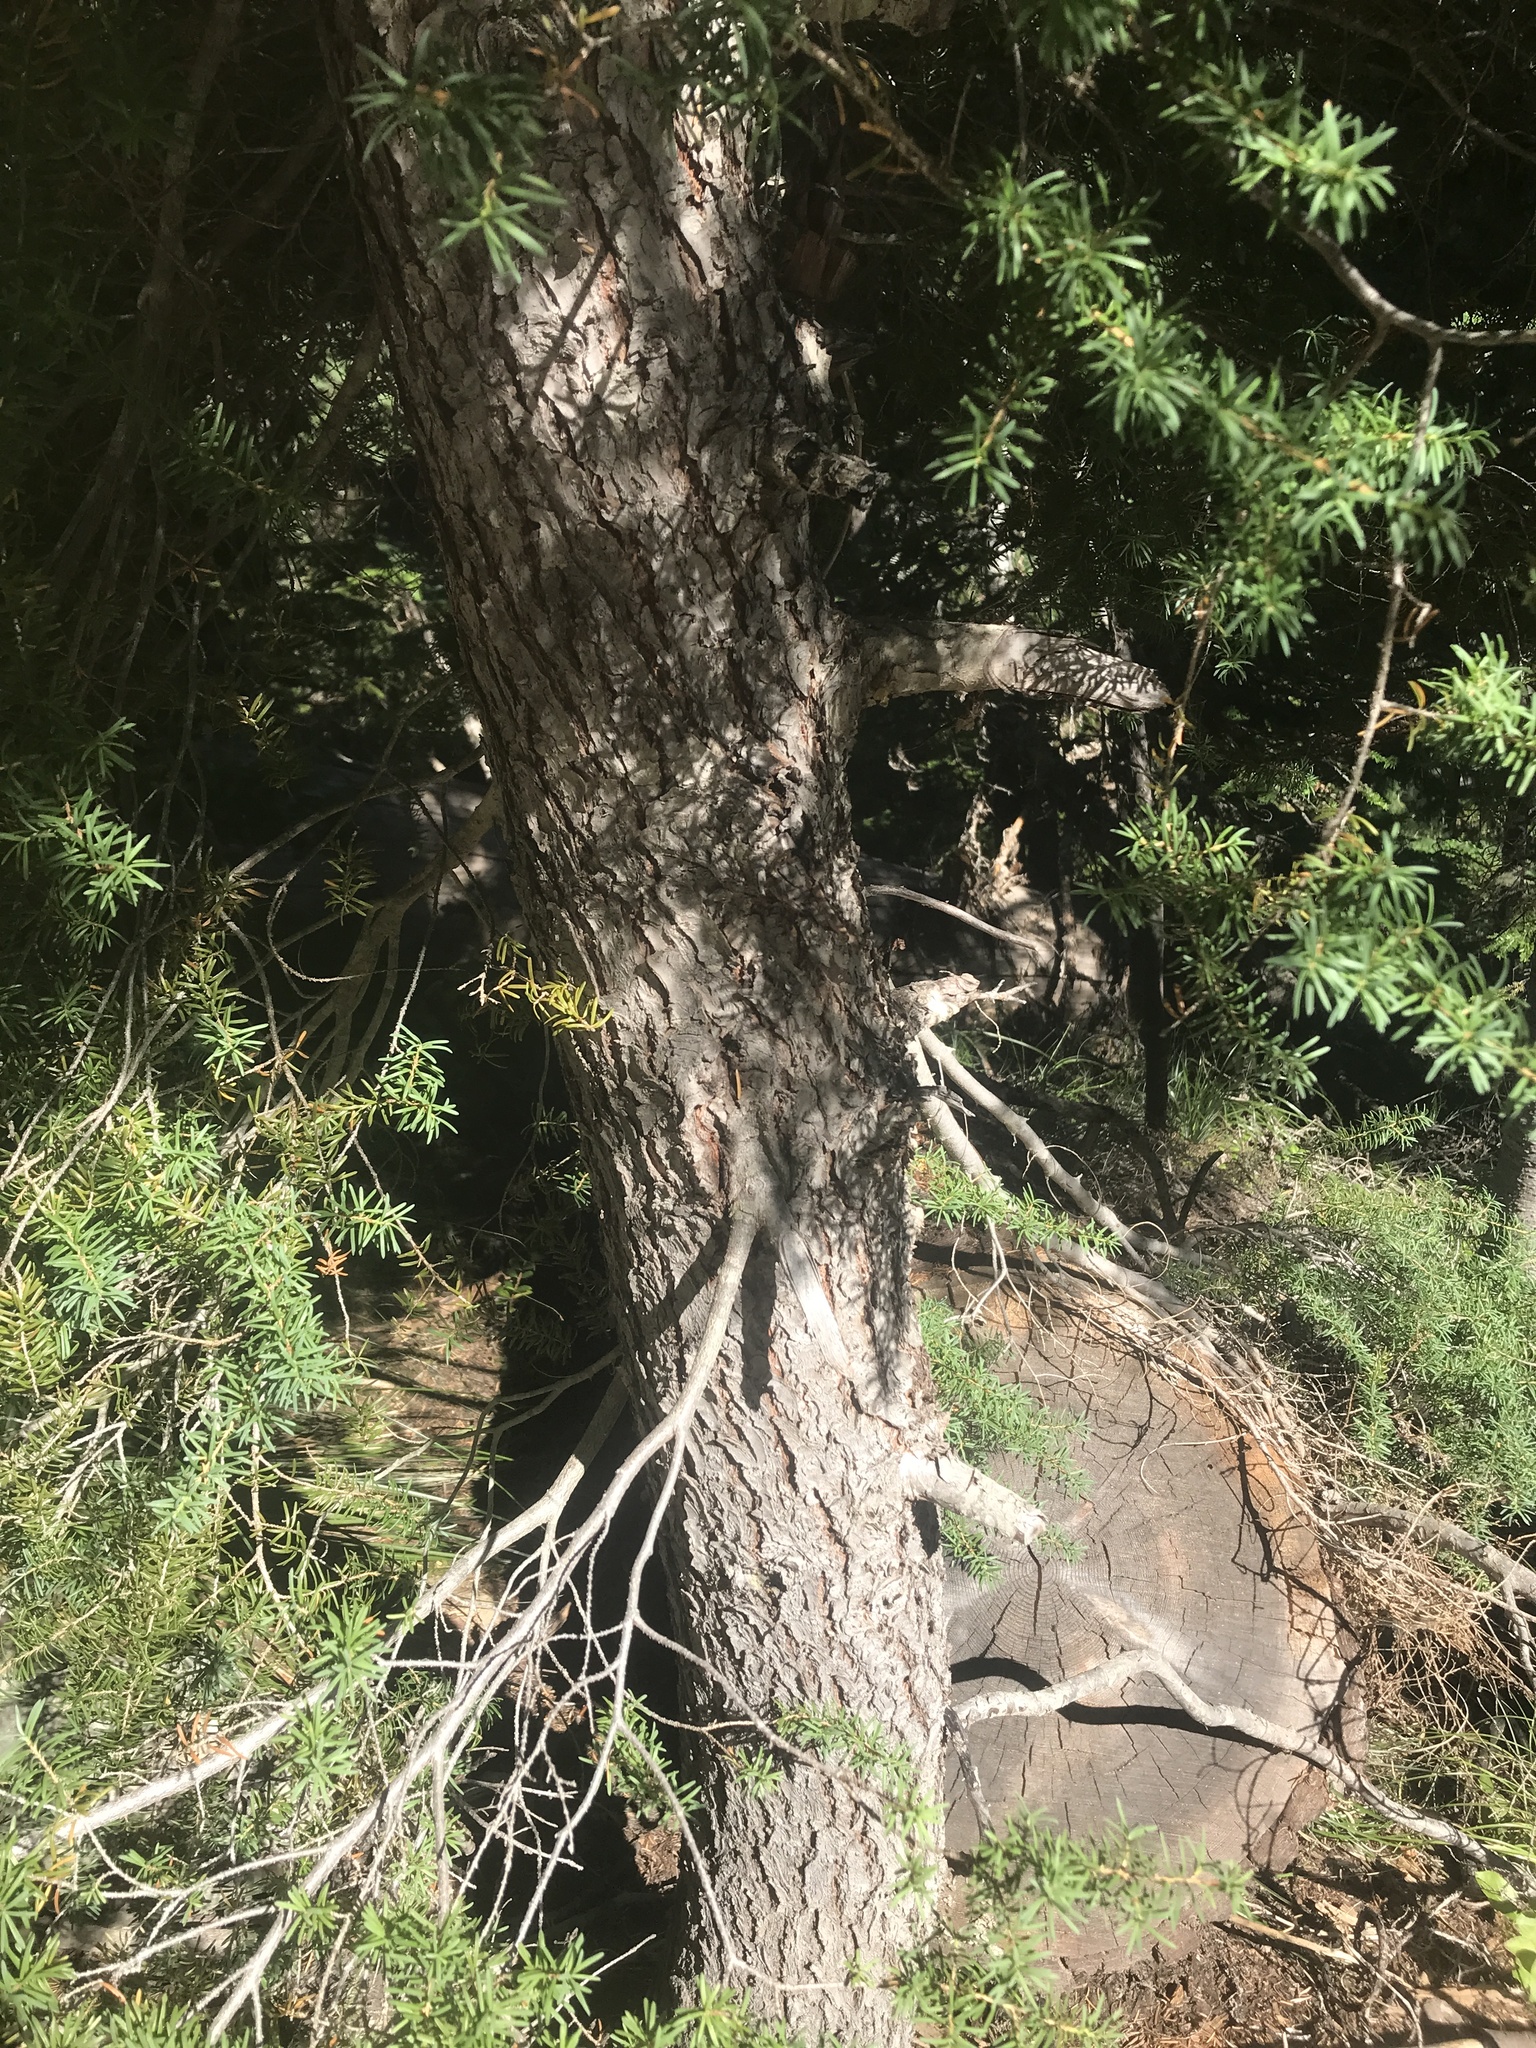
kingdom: Plantae
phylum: Tracheophyta
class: Pinopsida
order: Pinales
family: Pinaceae
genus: Tsuga
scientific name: Tsuga mertensiana
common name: Mountain hemlock
